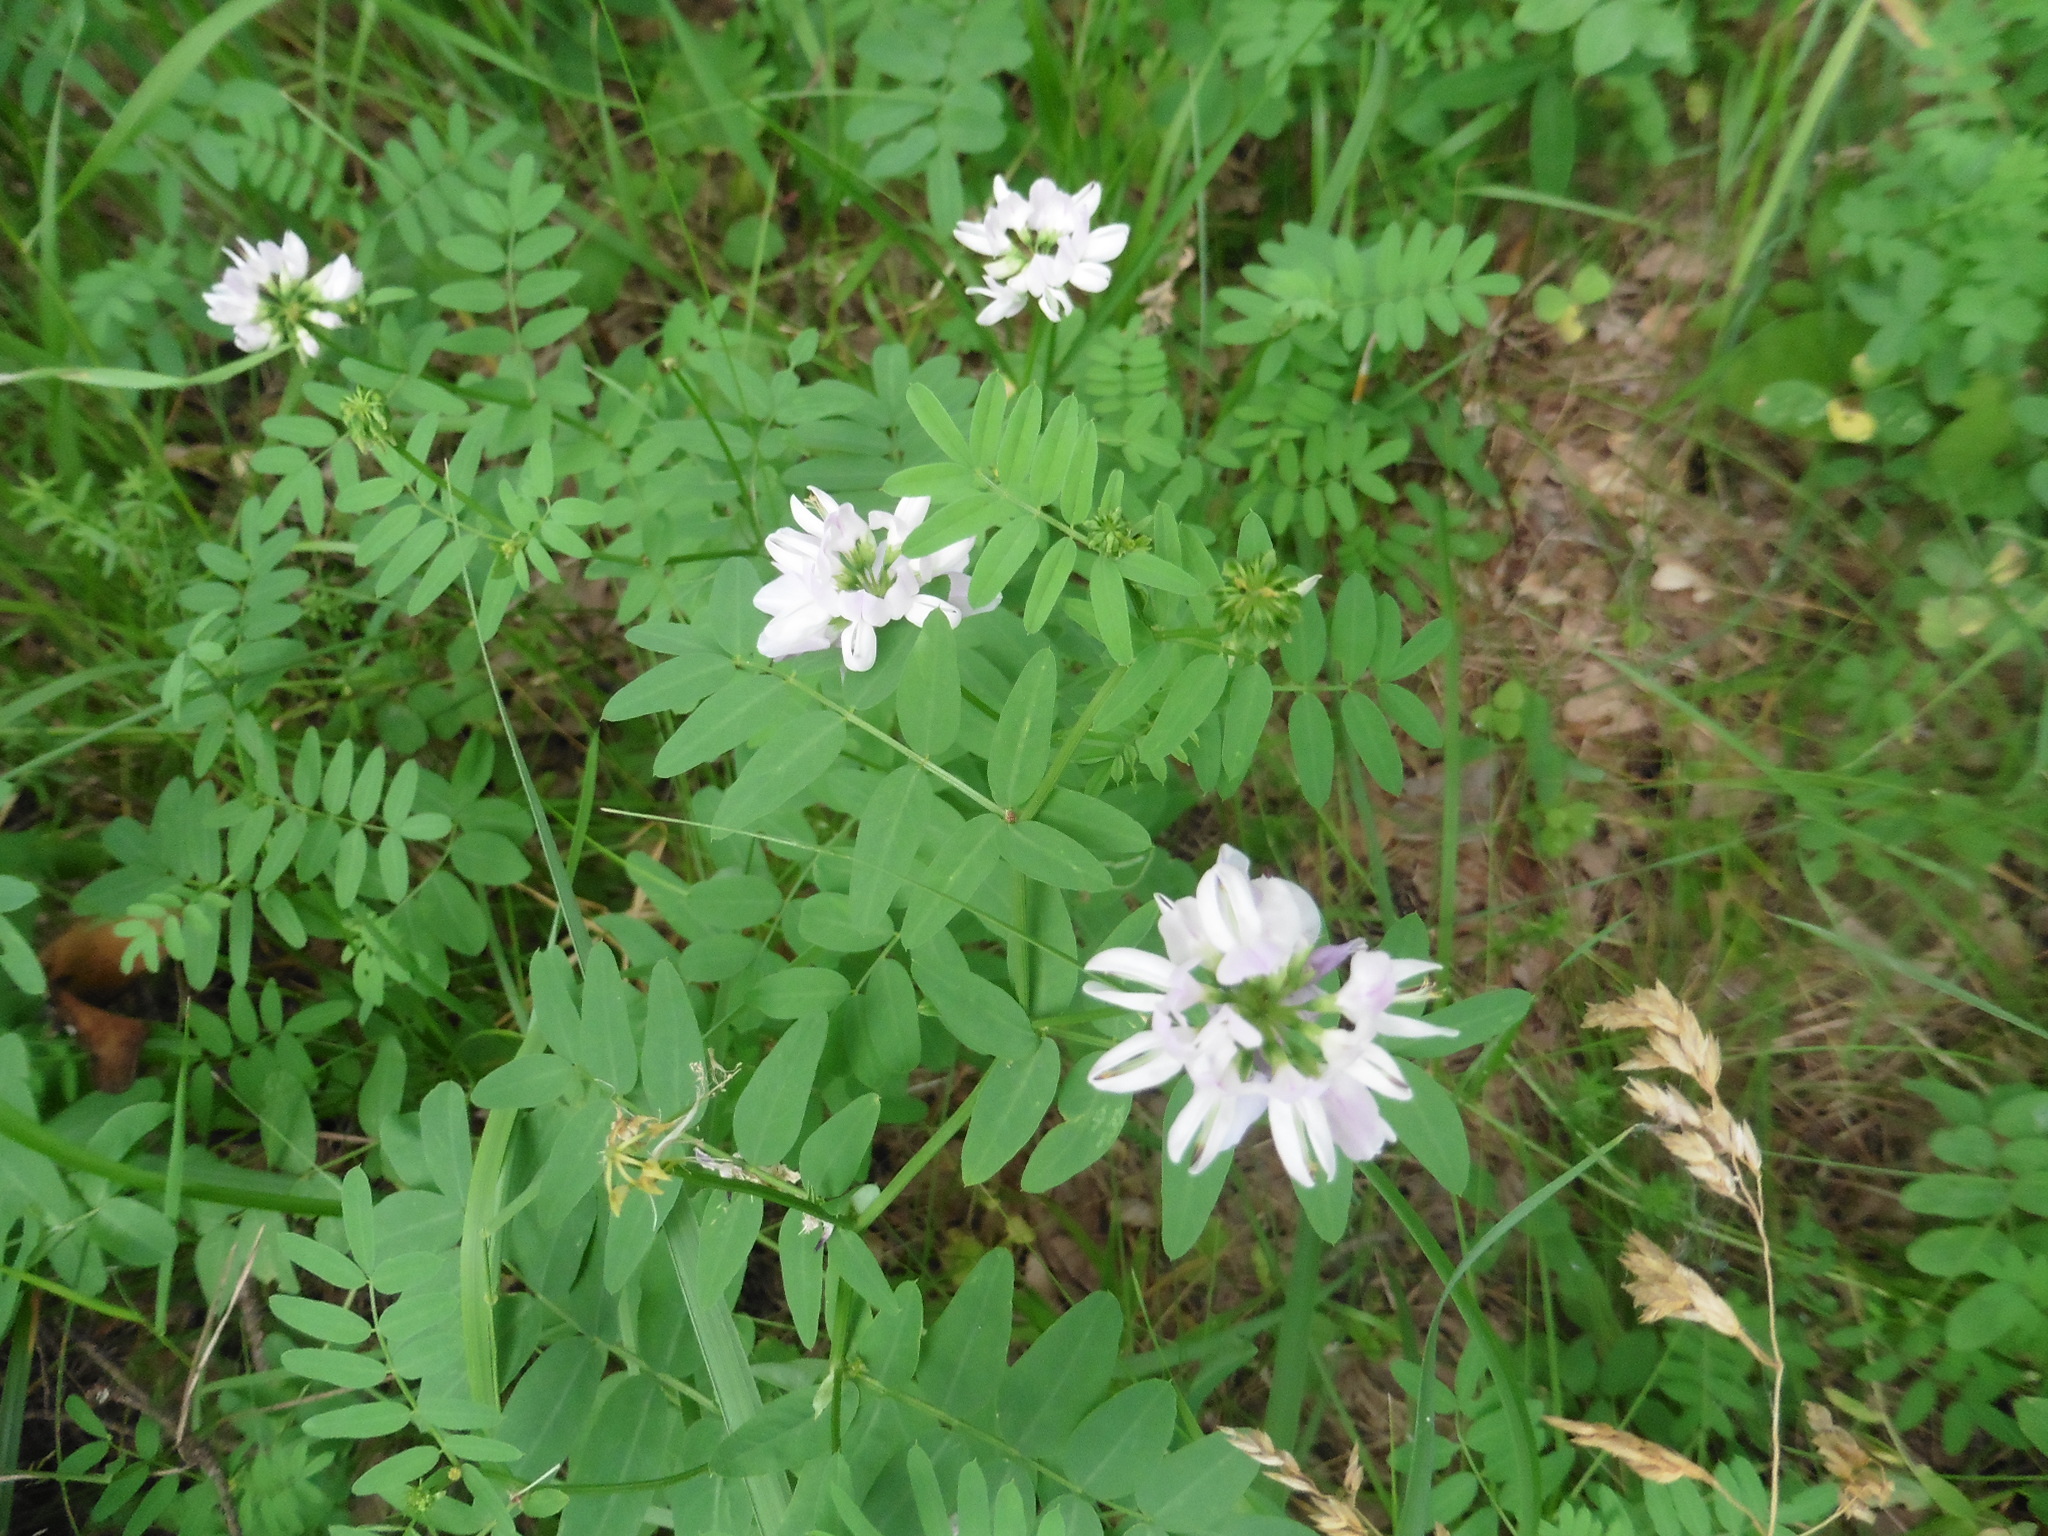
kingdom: Plantae
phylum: Tracheophyta
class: Magnoliopsida
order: Fabales
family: Fabaceae
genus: Coronilla
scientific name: Coronilla varia
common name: Crownvetch
